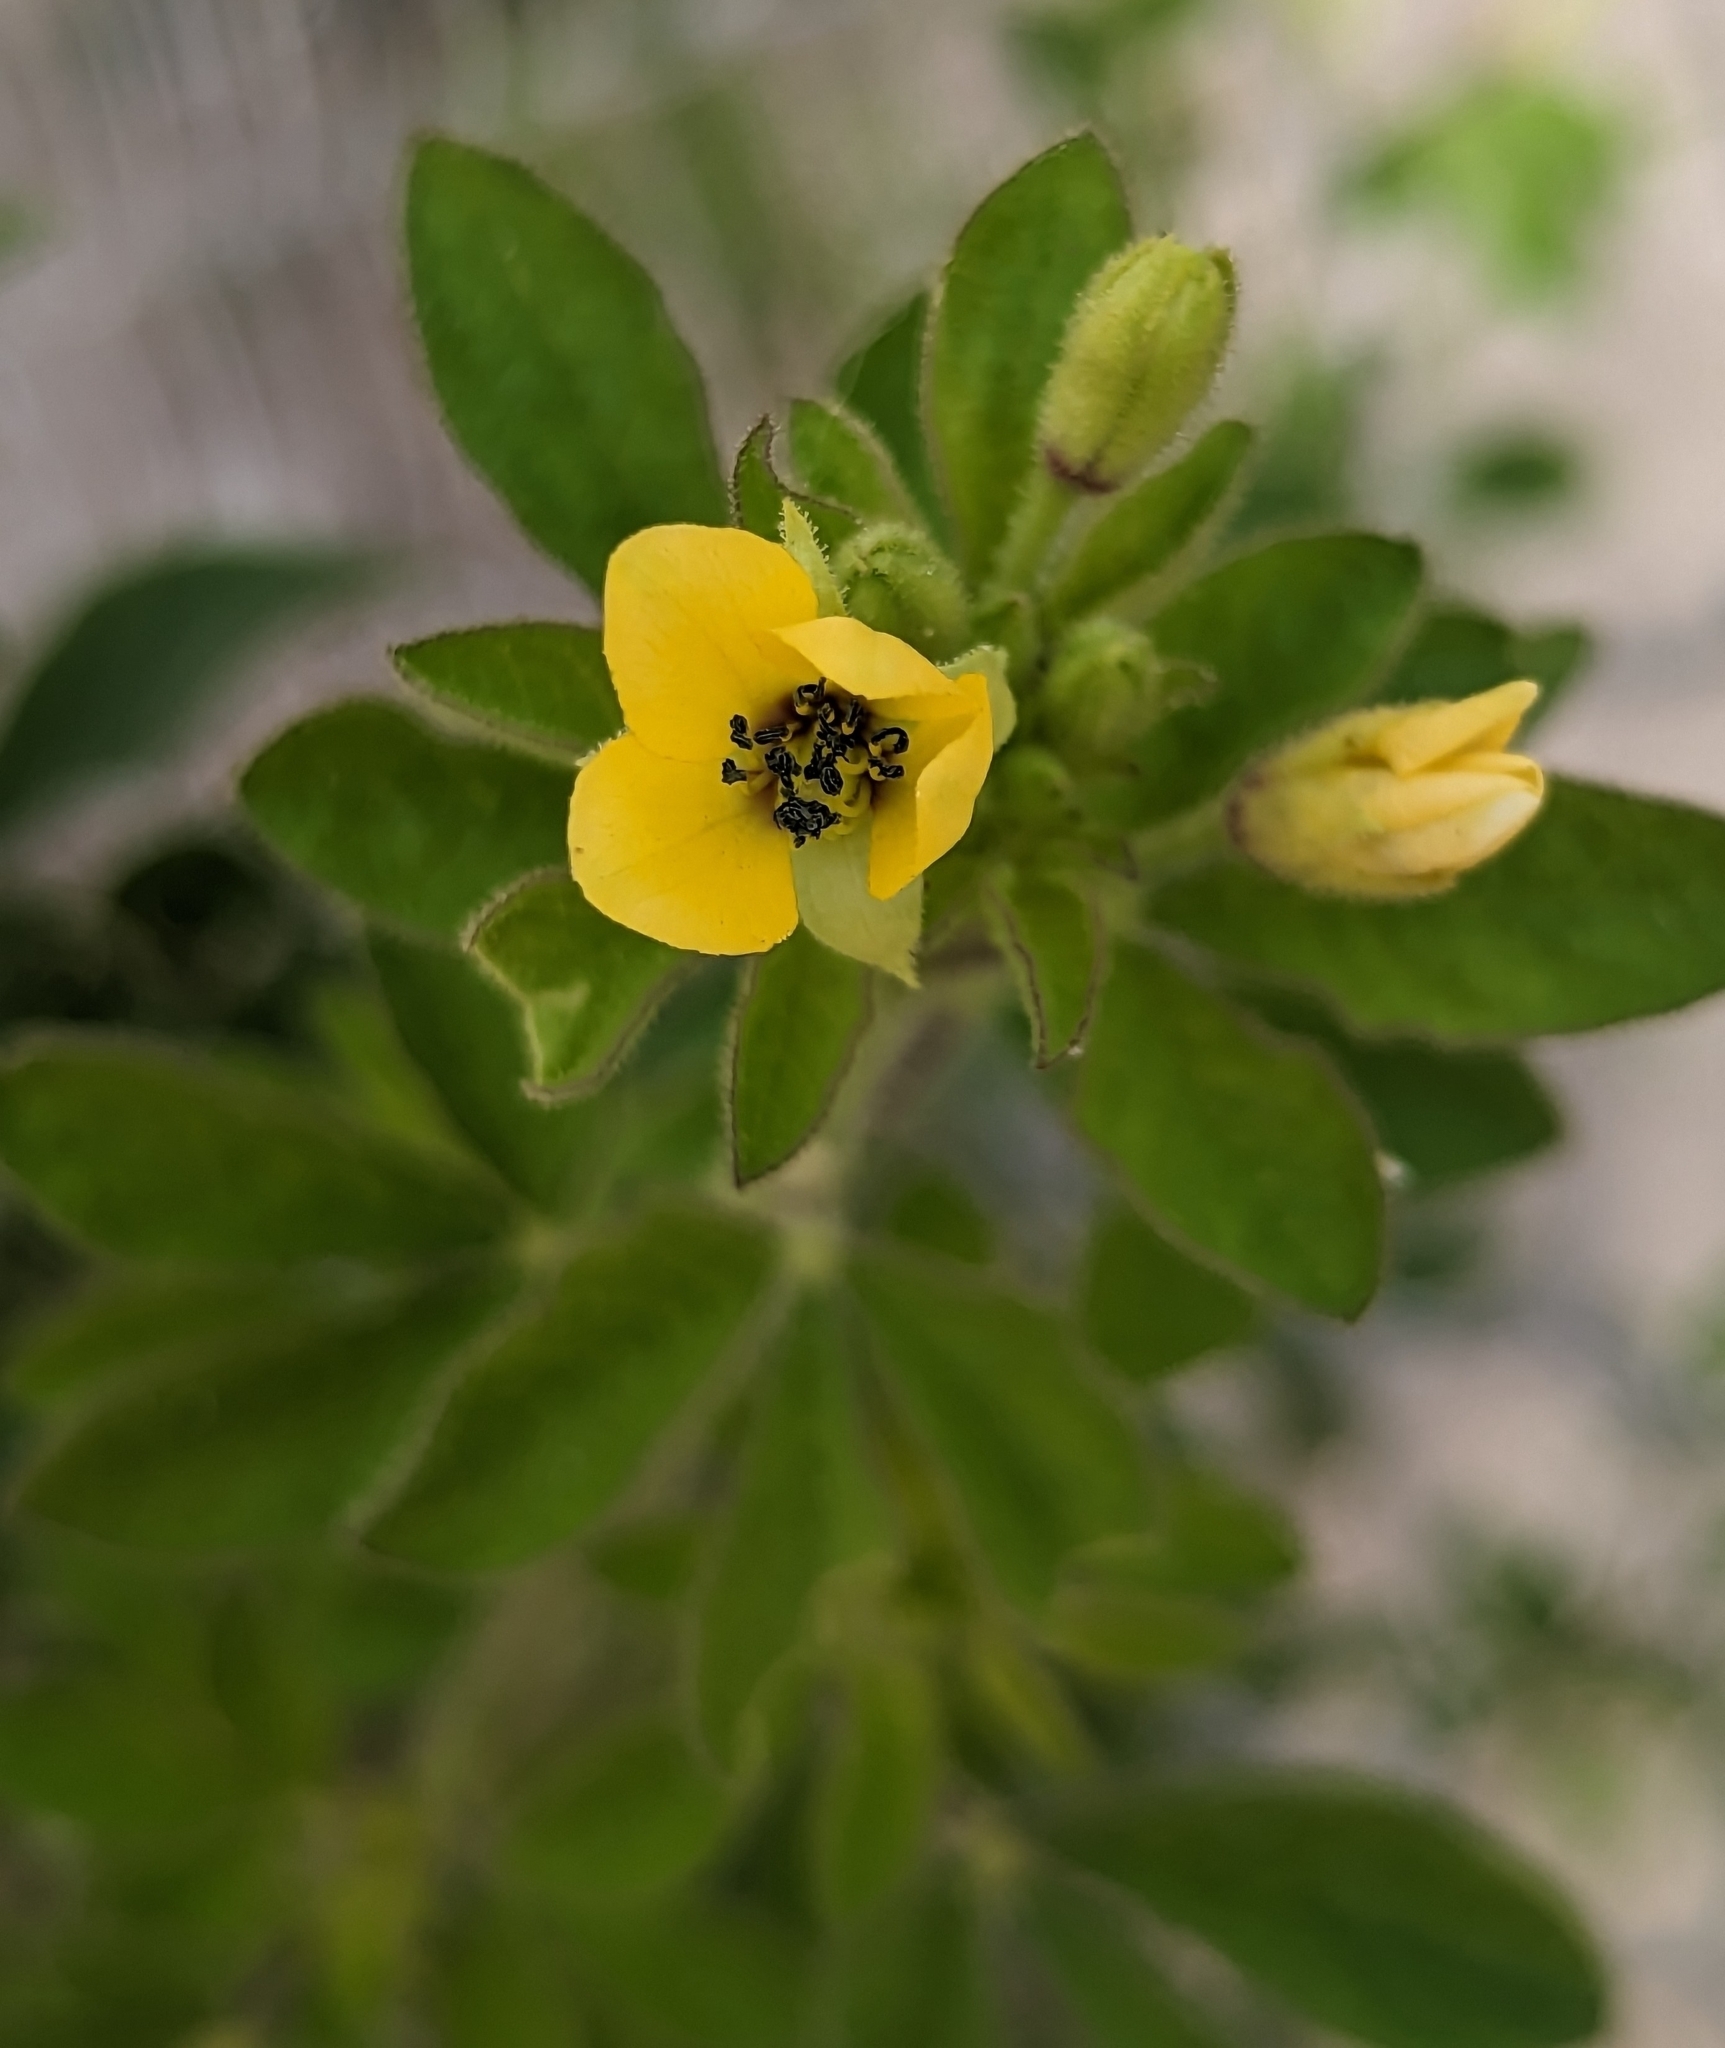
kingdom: Plantae
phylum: Tracheophyta
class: Magnoliopsida
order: Brassicales
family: Cleomaceae
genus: Arivela
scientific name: Arivela viscosa
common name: Asian spiderflower
